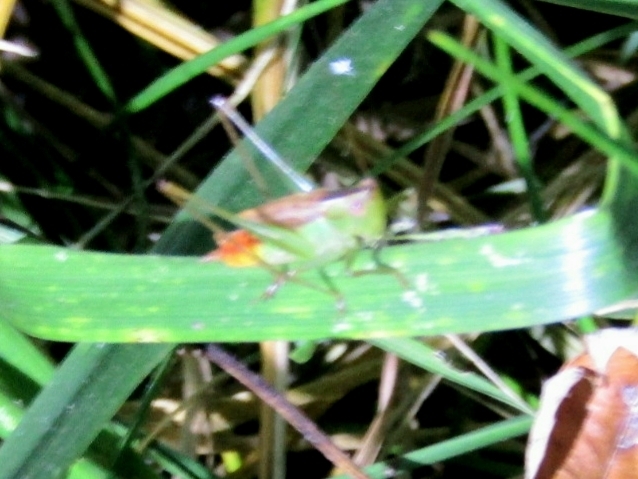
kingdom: Animalia
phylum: Arthropoda
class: Insecta
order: Orthoptera
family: Tettigoniidae
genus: Conocephalus
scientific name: Conocephalus brevipennis
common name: Short-winged meadow katydid
